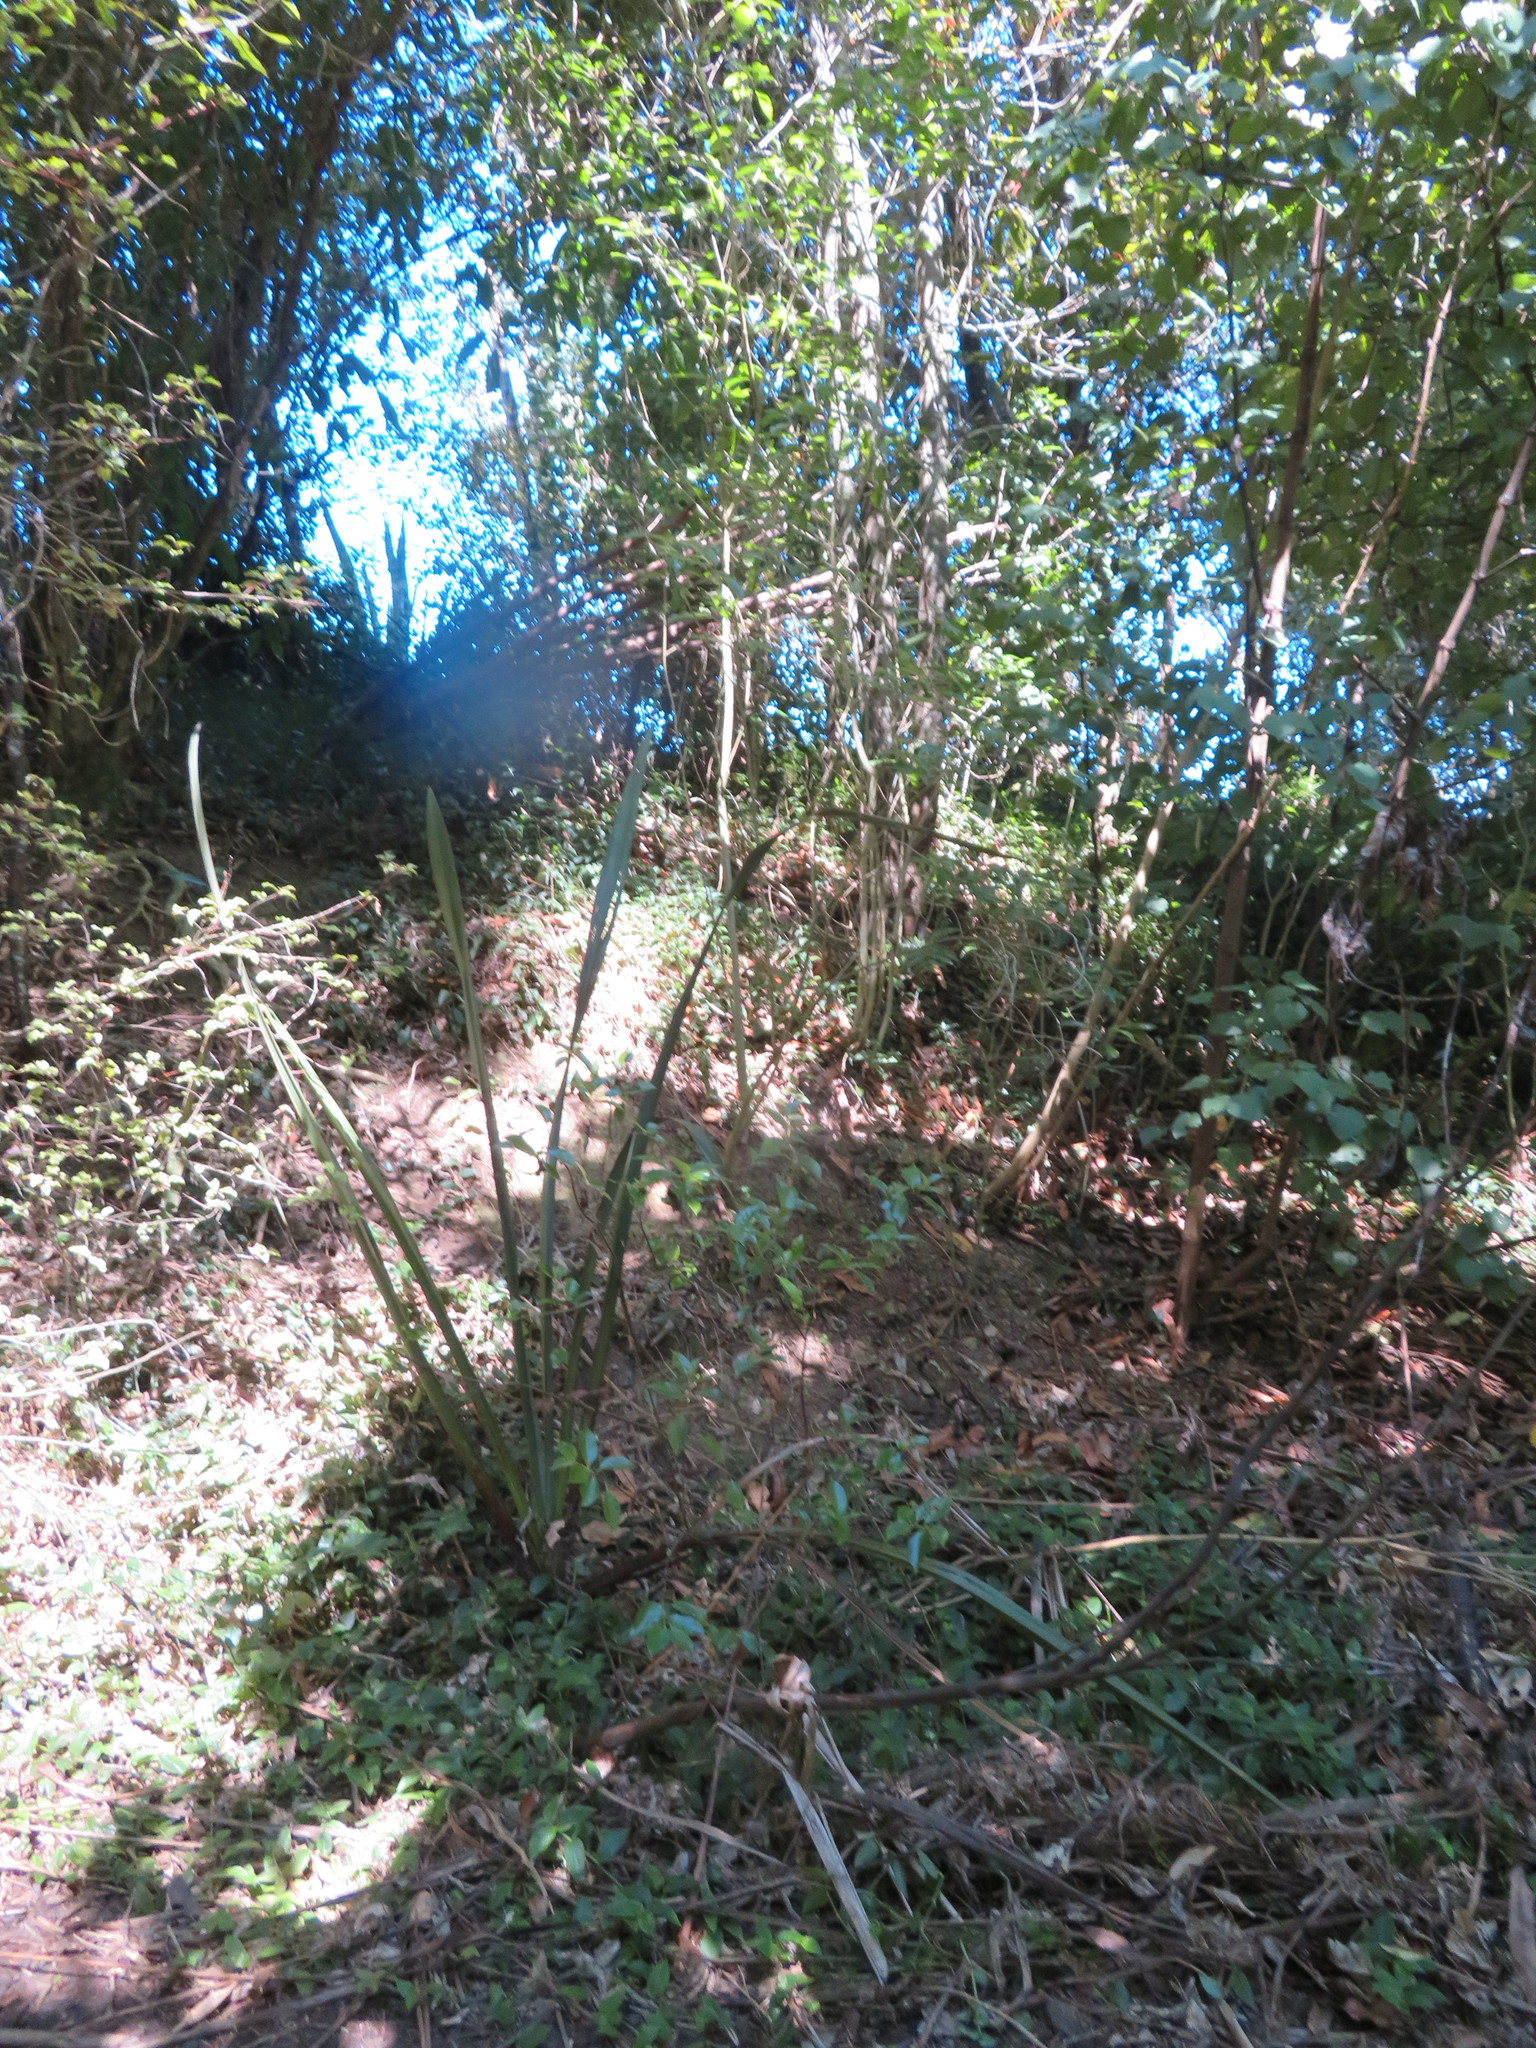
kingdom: Plantae
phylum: Tracheophyta
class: Liliopsida
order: Commelinales
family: Commelinaceae
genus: Tradescantia
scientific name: Tradescantia fluminensis
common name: Wandering-jew
